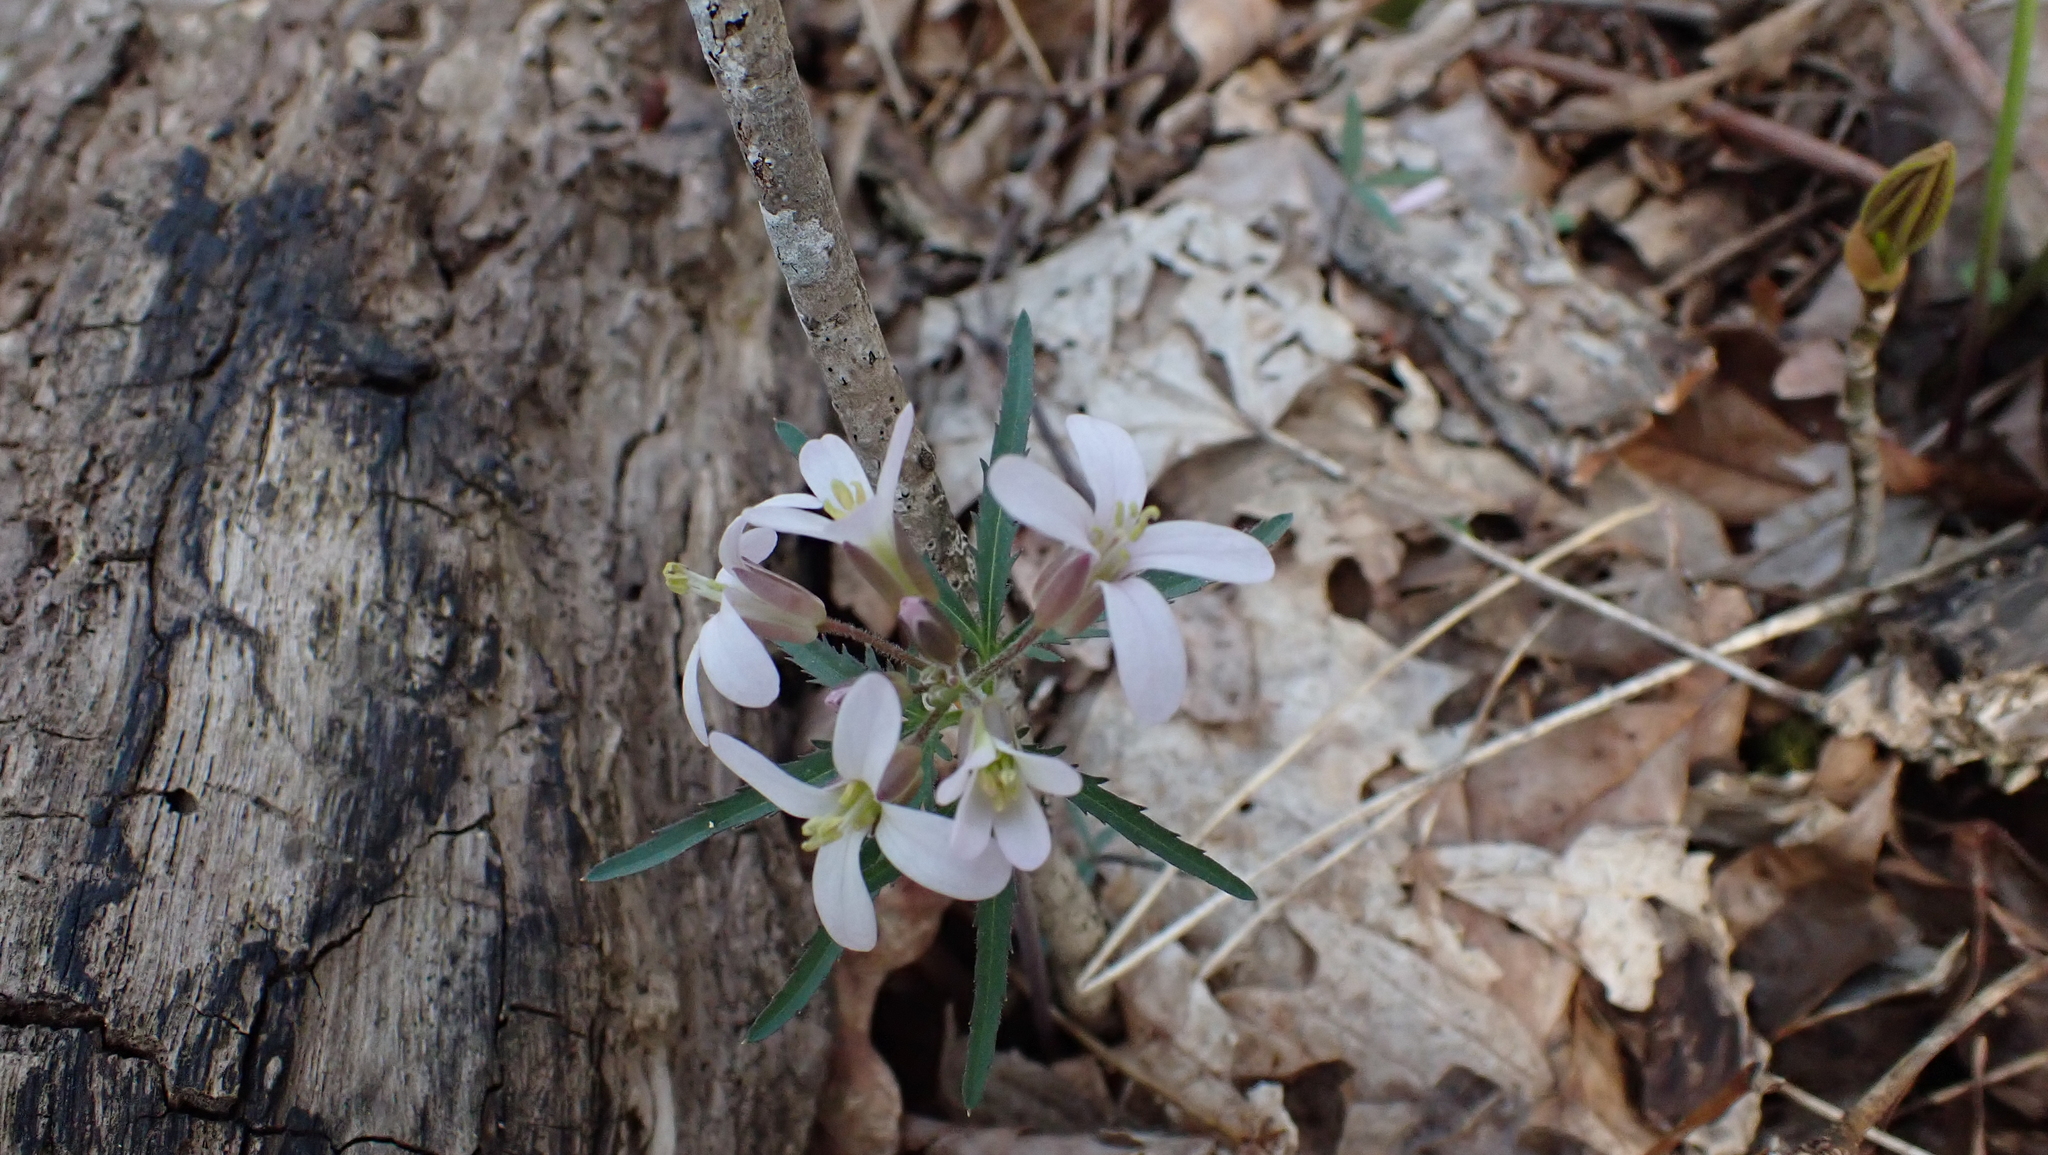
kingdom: Plantae
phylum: Tracheophyta
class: Magnoliopsida
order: Brassicales
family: Brassicaceae
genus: Cardamine
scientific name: Cardamine concatenata
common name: Cut-leaf toothcup
